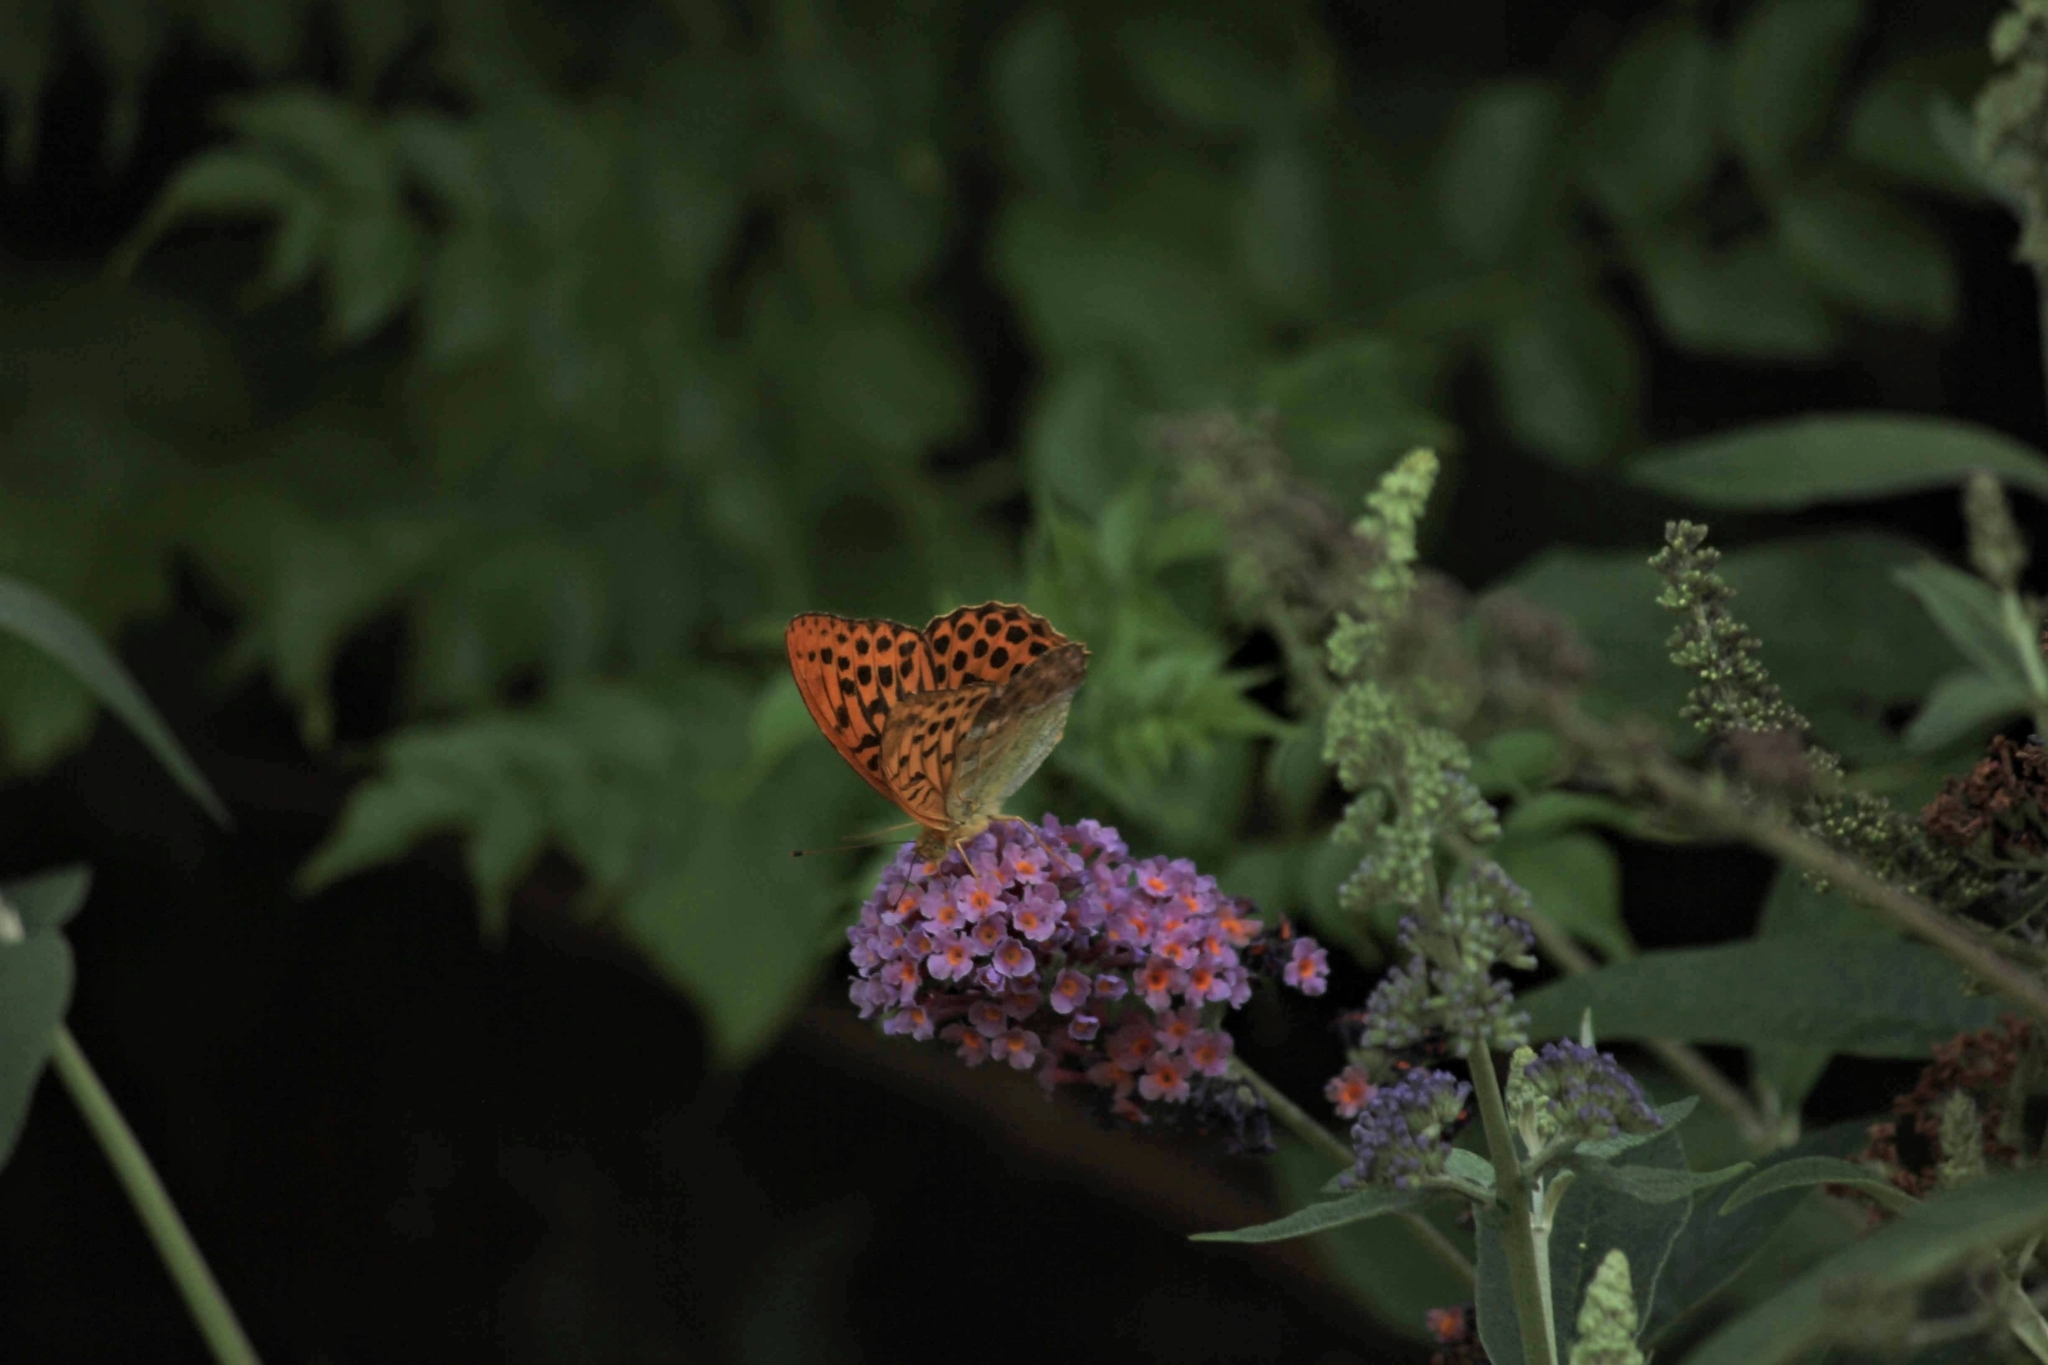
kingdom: Animalia
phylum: Arthropoda
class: Insecta
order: Lepidoptera
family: Nymphalidae
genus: Argynnis
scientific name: Argynnis paphia
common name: Silver-washed fritillary
